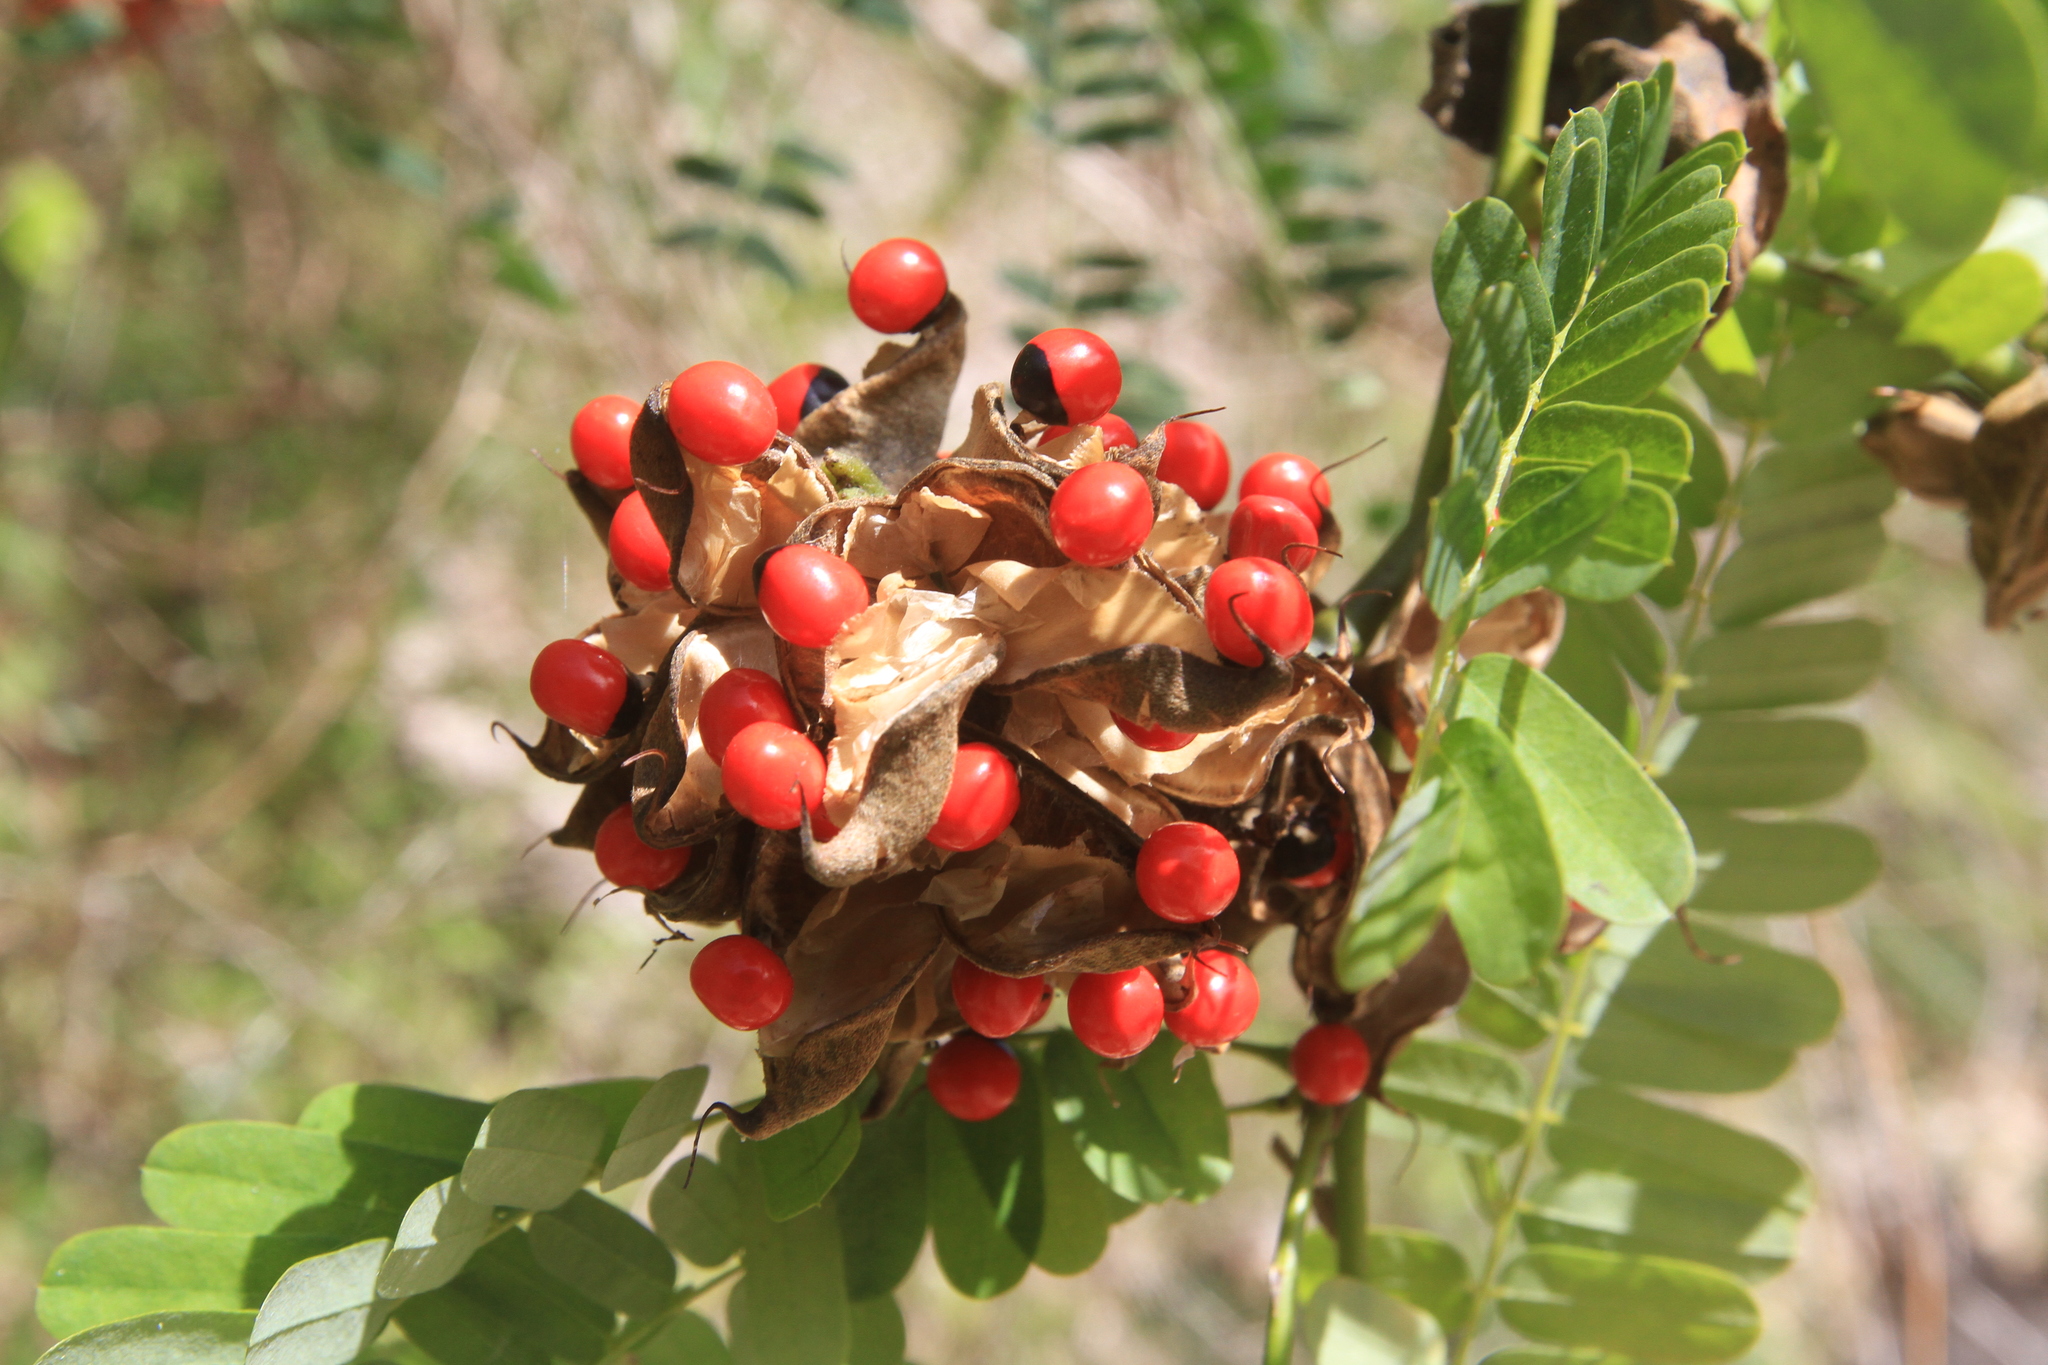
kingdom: Plantae
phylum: Tracheophyta
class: Magnoliopsida
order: Fabales
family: Fabaceae
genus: Abrus
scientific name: Abrus precatorius
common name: Rosarypea
